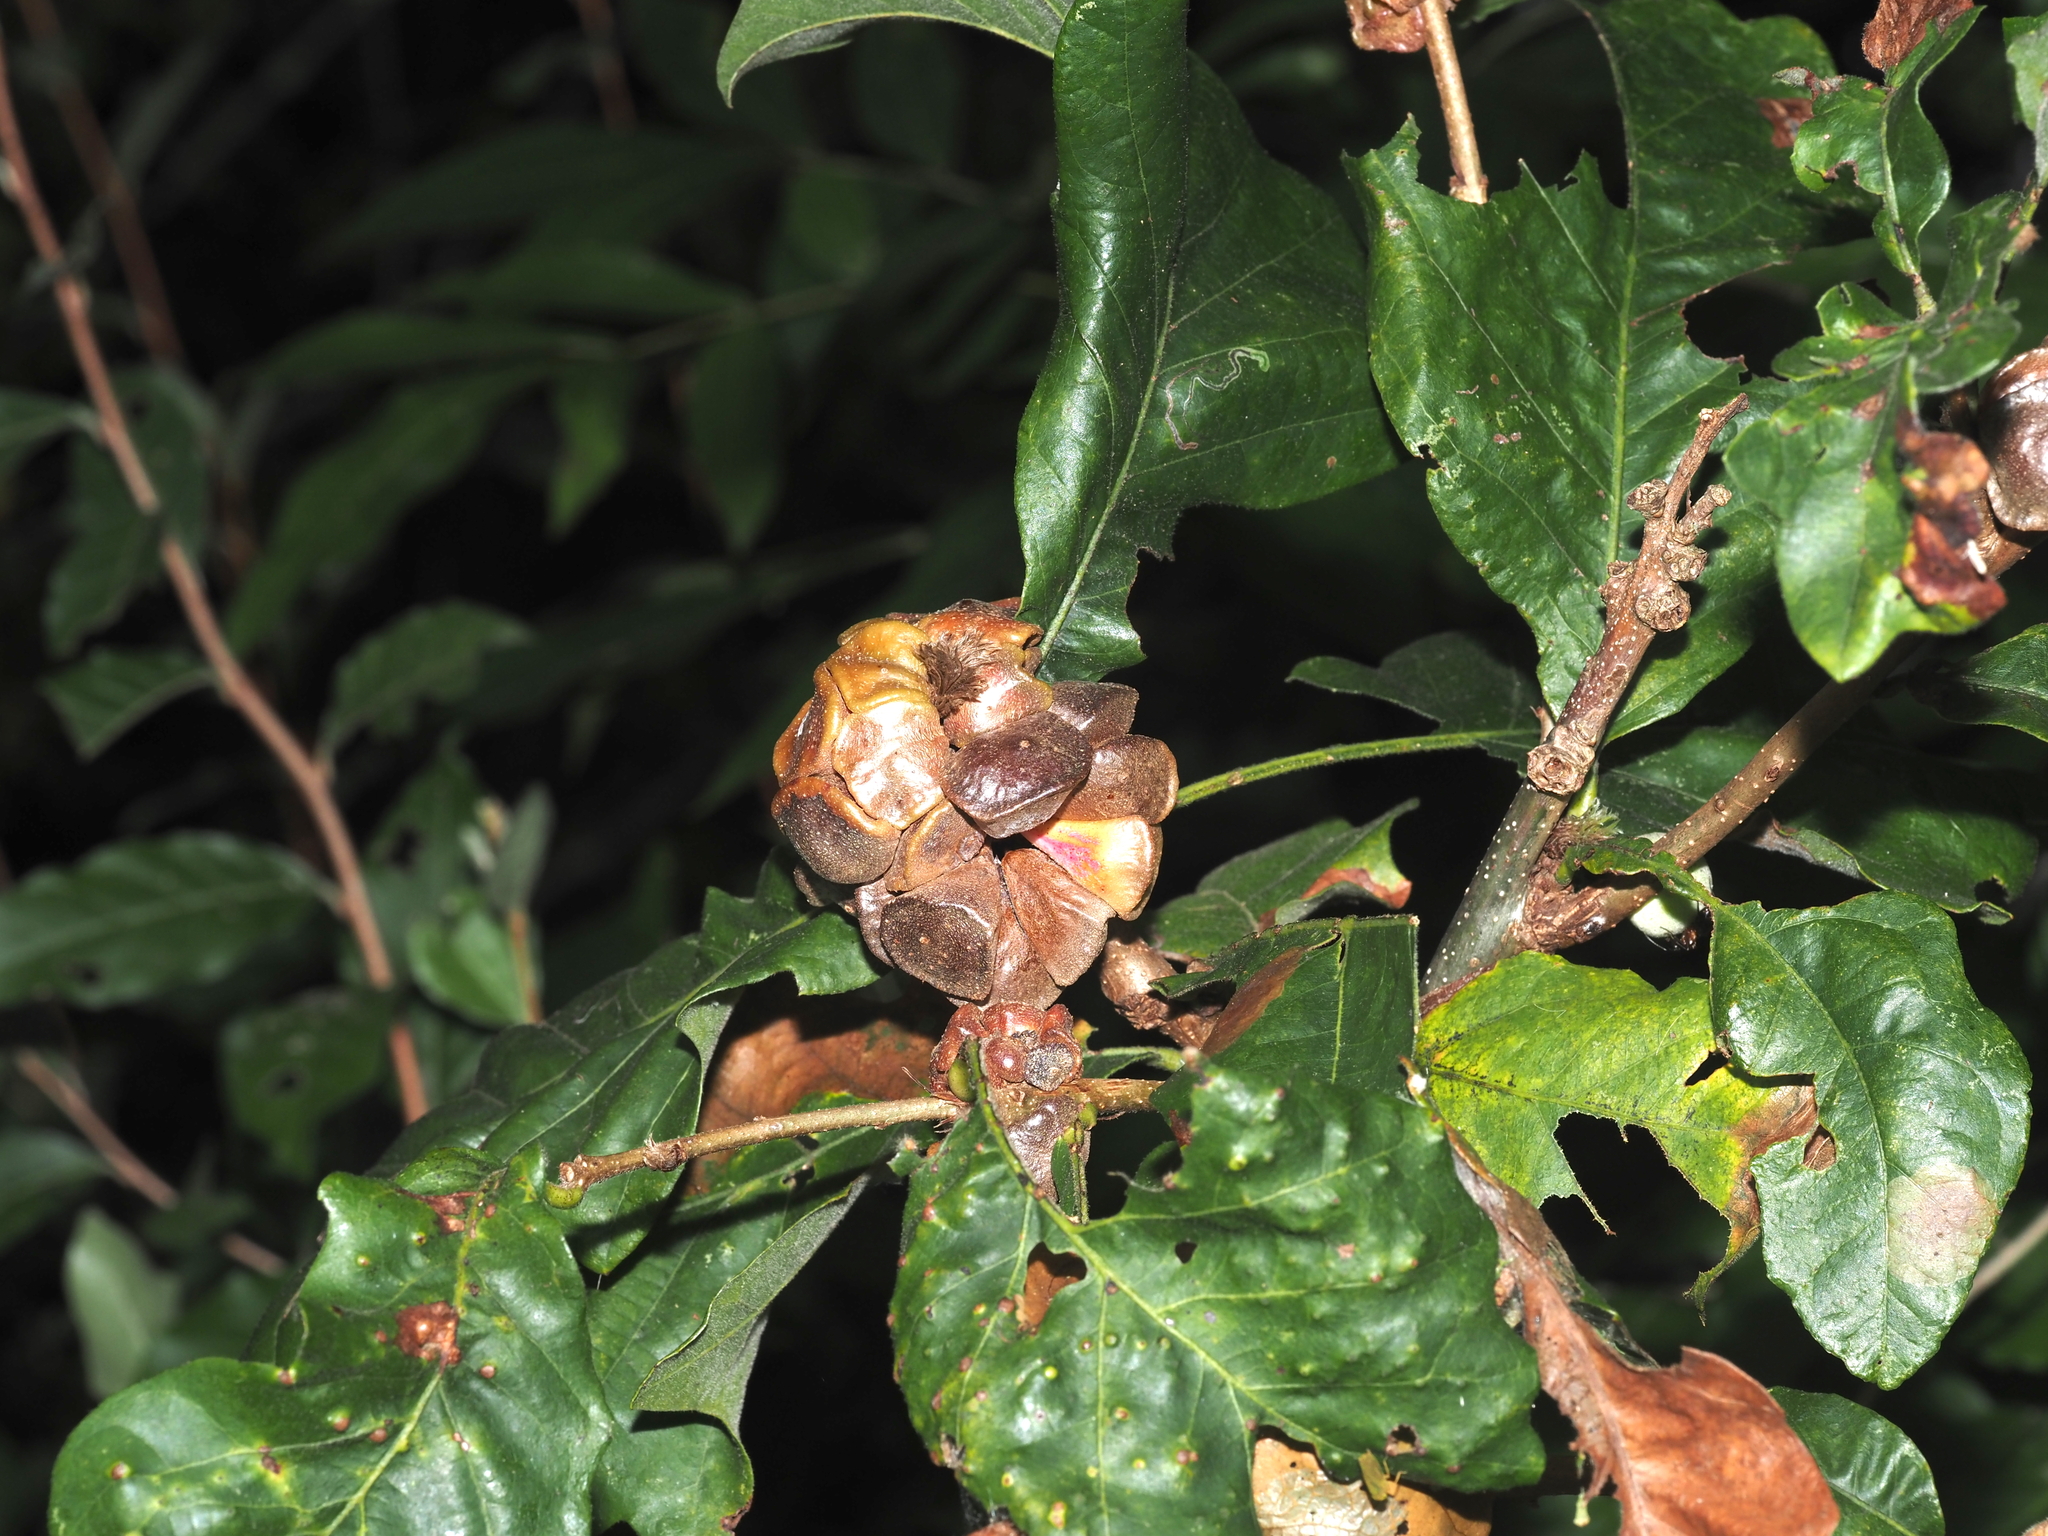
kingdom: Animalia
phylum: Arthropoda
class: Insecta
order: Hymenoptera
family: Cynipidae
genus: Andricus
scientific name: Andricus
